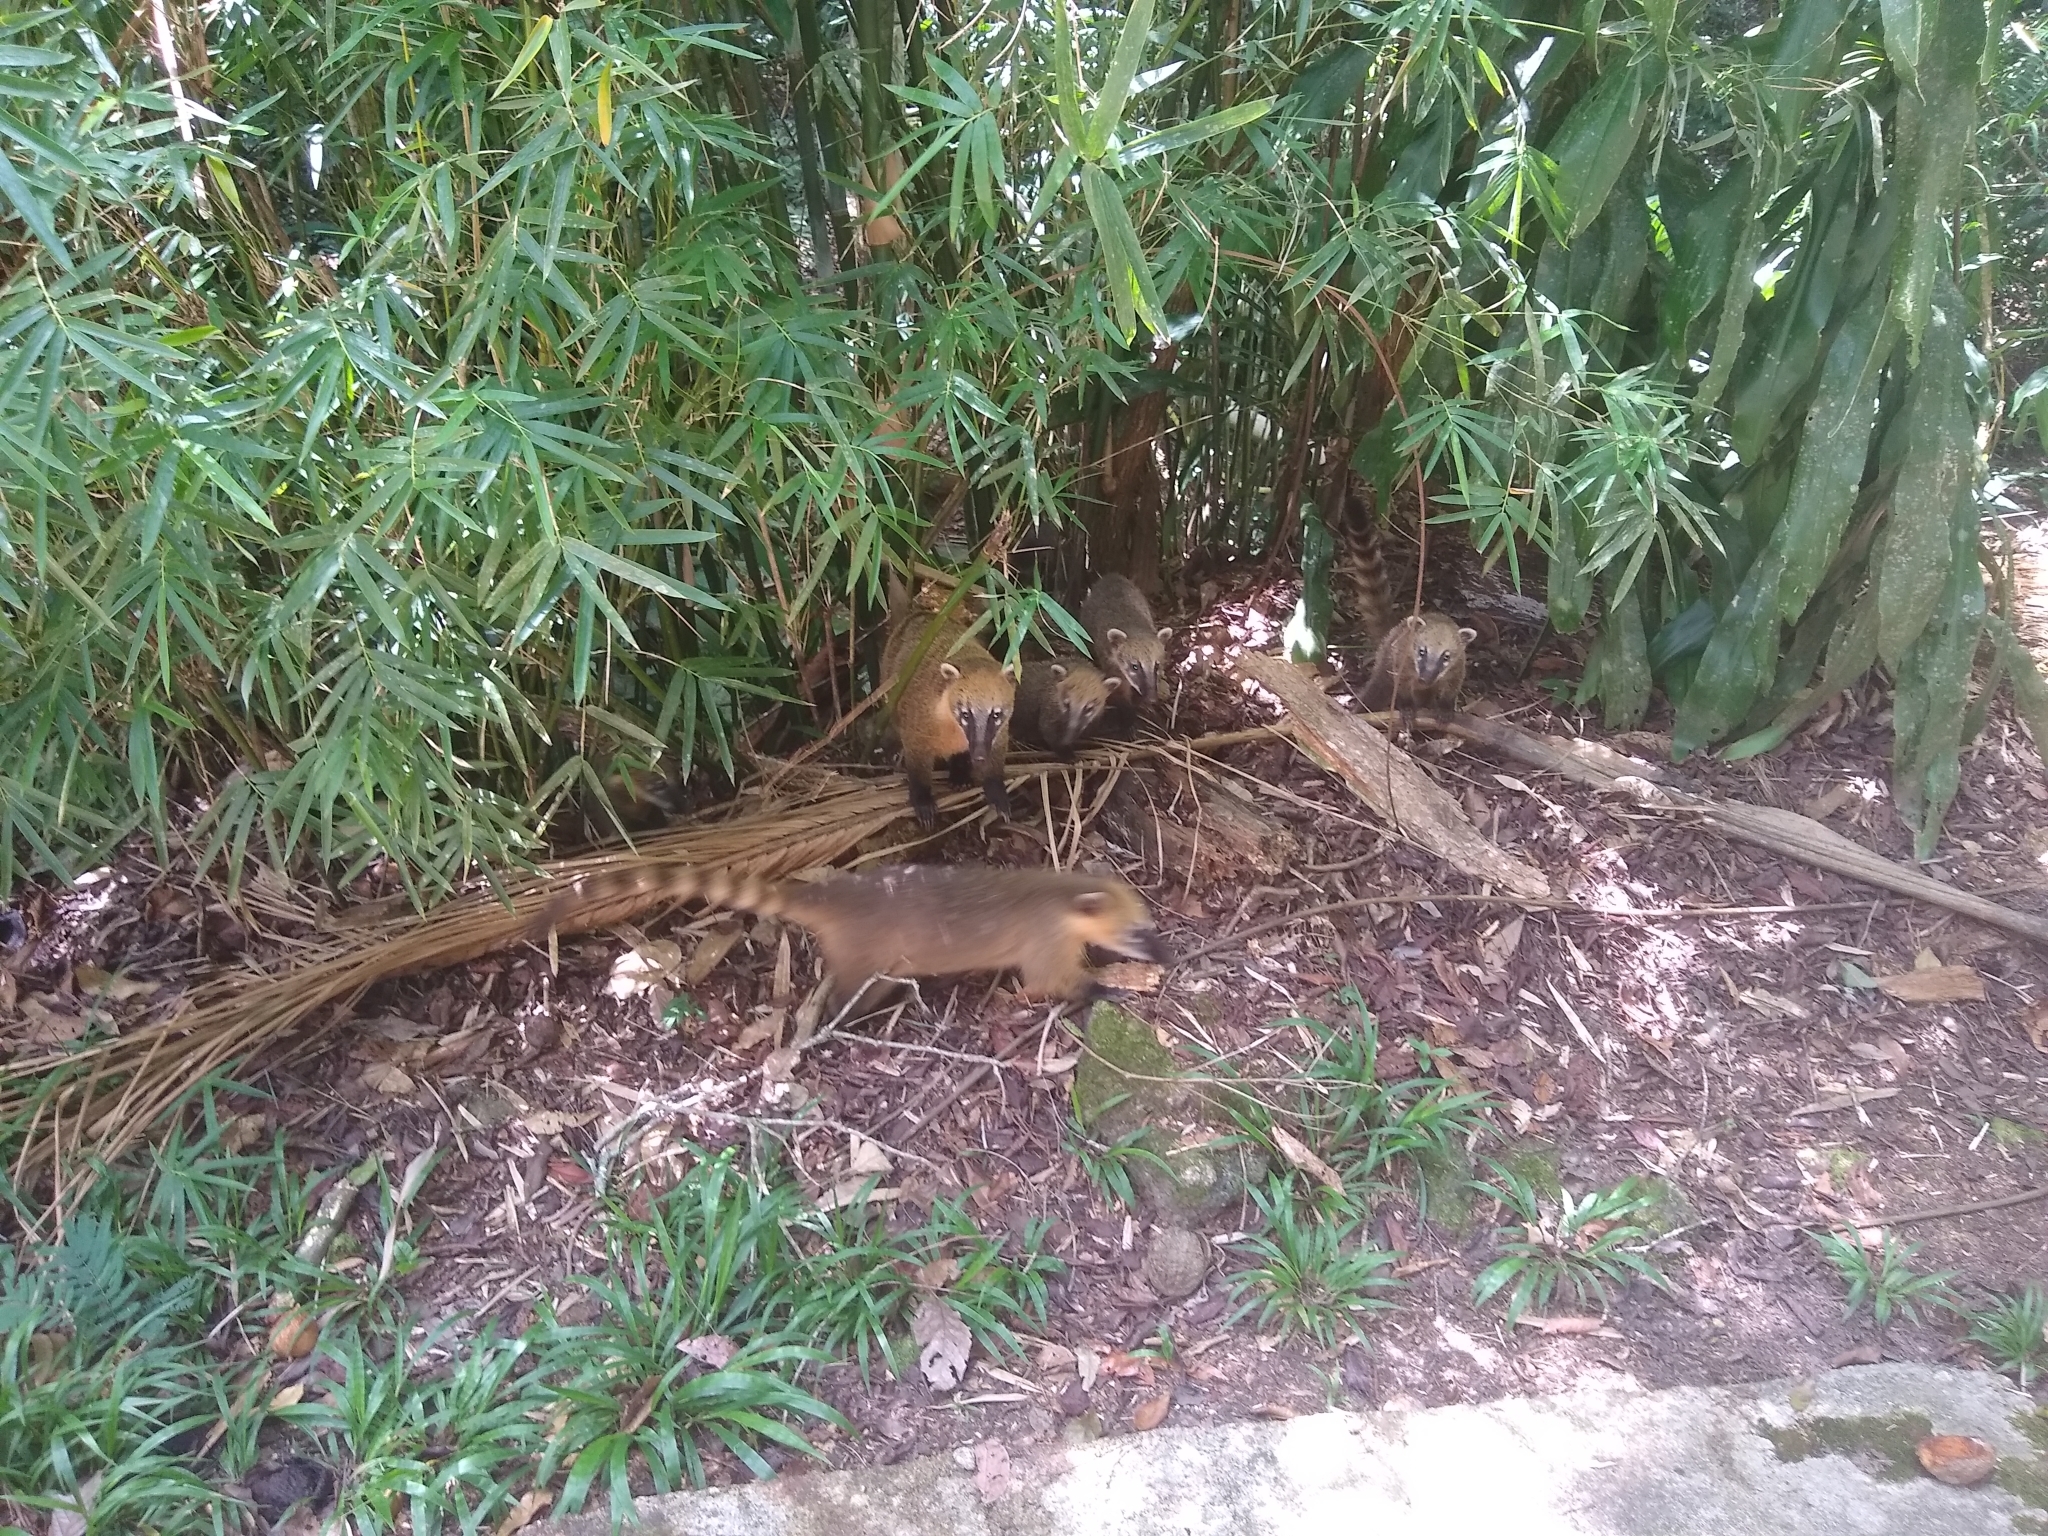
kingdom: Animalia
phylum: Chordata
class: Mammalia
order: Carnivora
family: Procyonidae
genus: Nasua
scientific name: Nasua nasua
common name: South american coati
